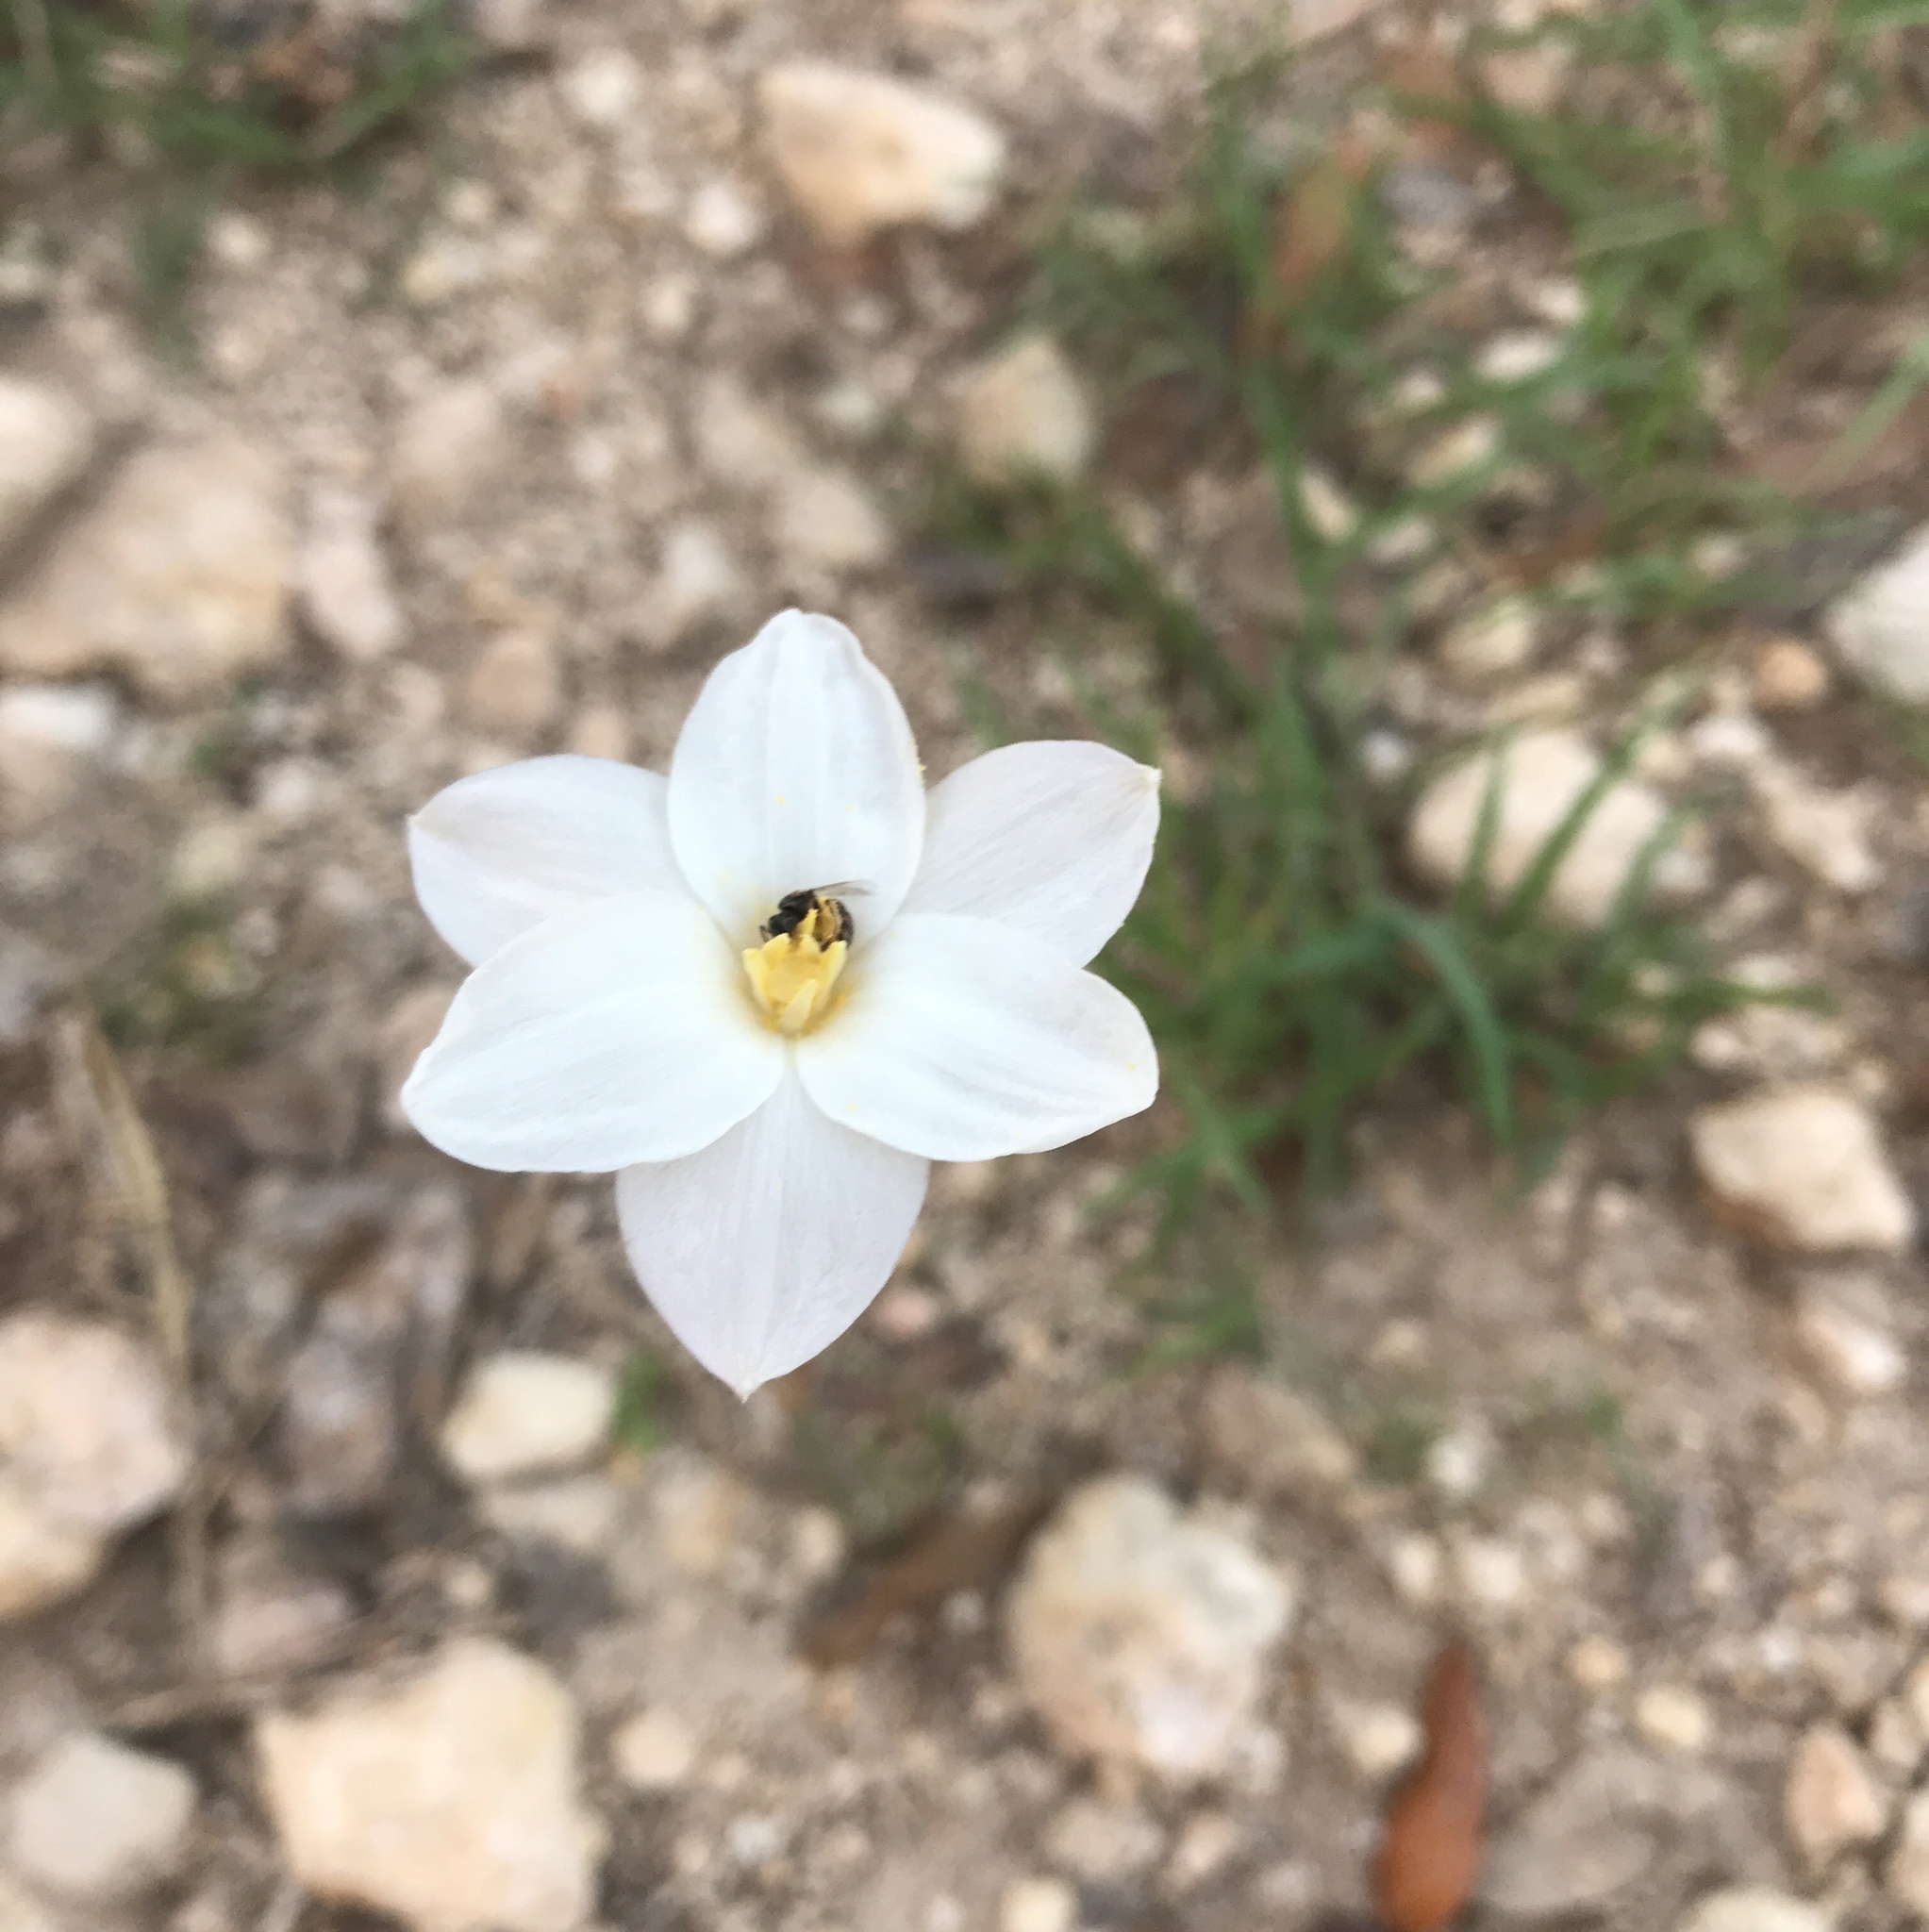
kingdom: Plantae
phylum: Tracheophyta
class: Liliopsida
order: Asparagales
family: Amaryllidaceae
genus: Zephyranthes
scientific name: Zephyranthes chlorosolen
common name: Evening rain-lily
